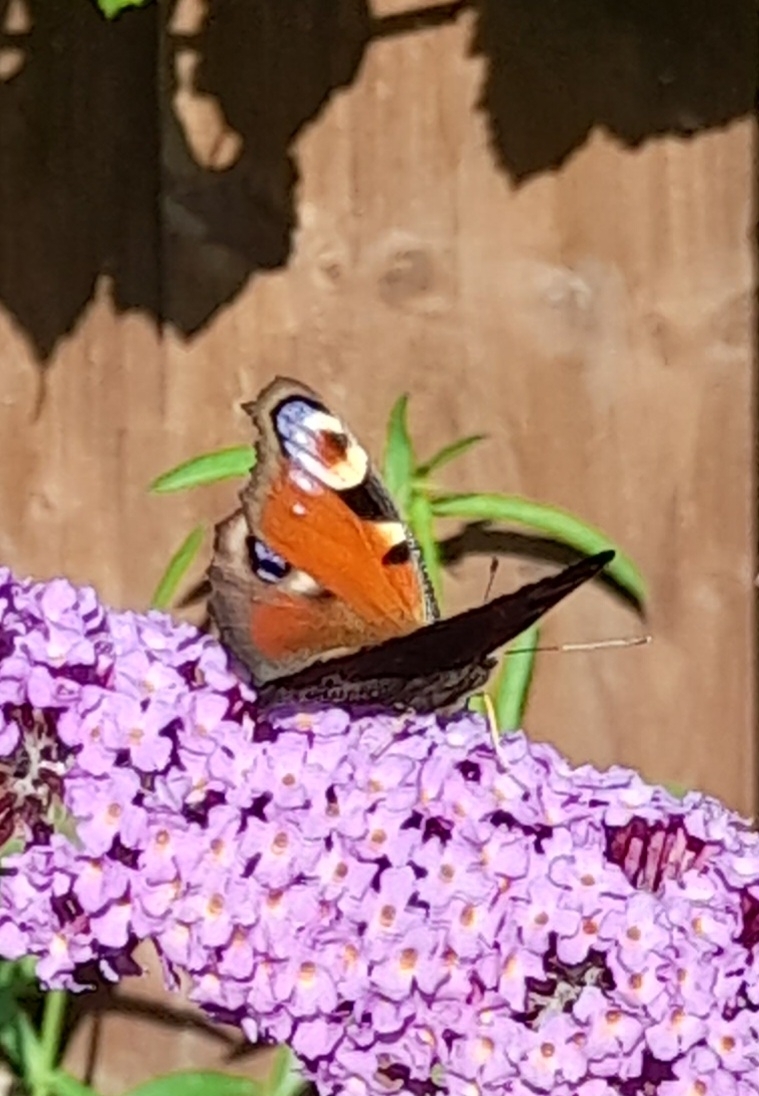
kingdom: Animalia
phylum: Arthropoda
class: Insecta
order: Lepidoptera
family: Nymphalidae
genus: Aglais
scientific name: Aglais io
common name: Peacock
